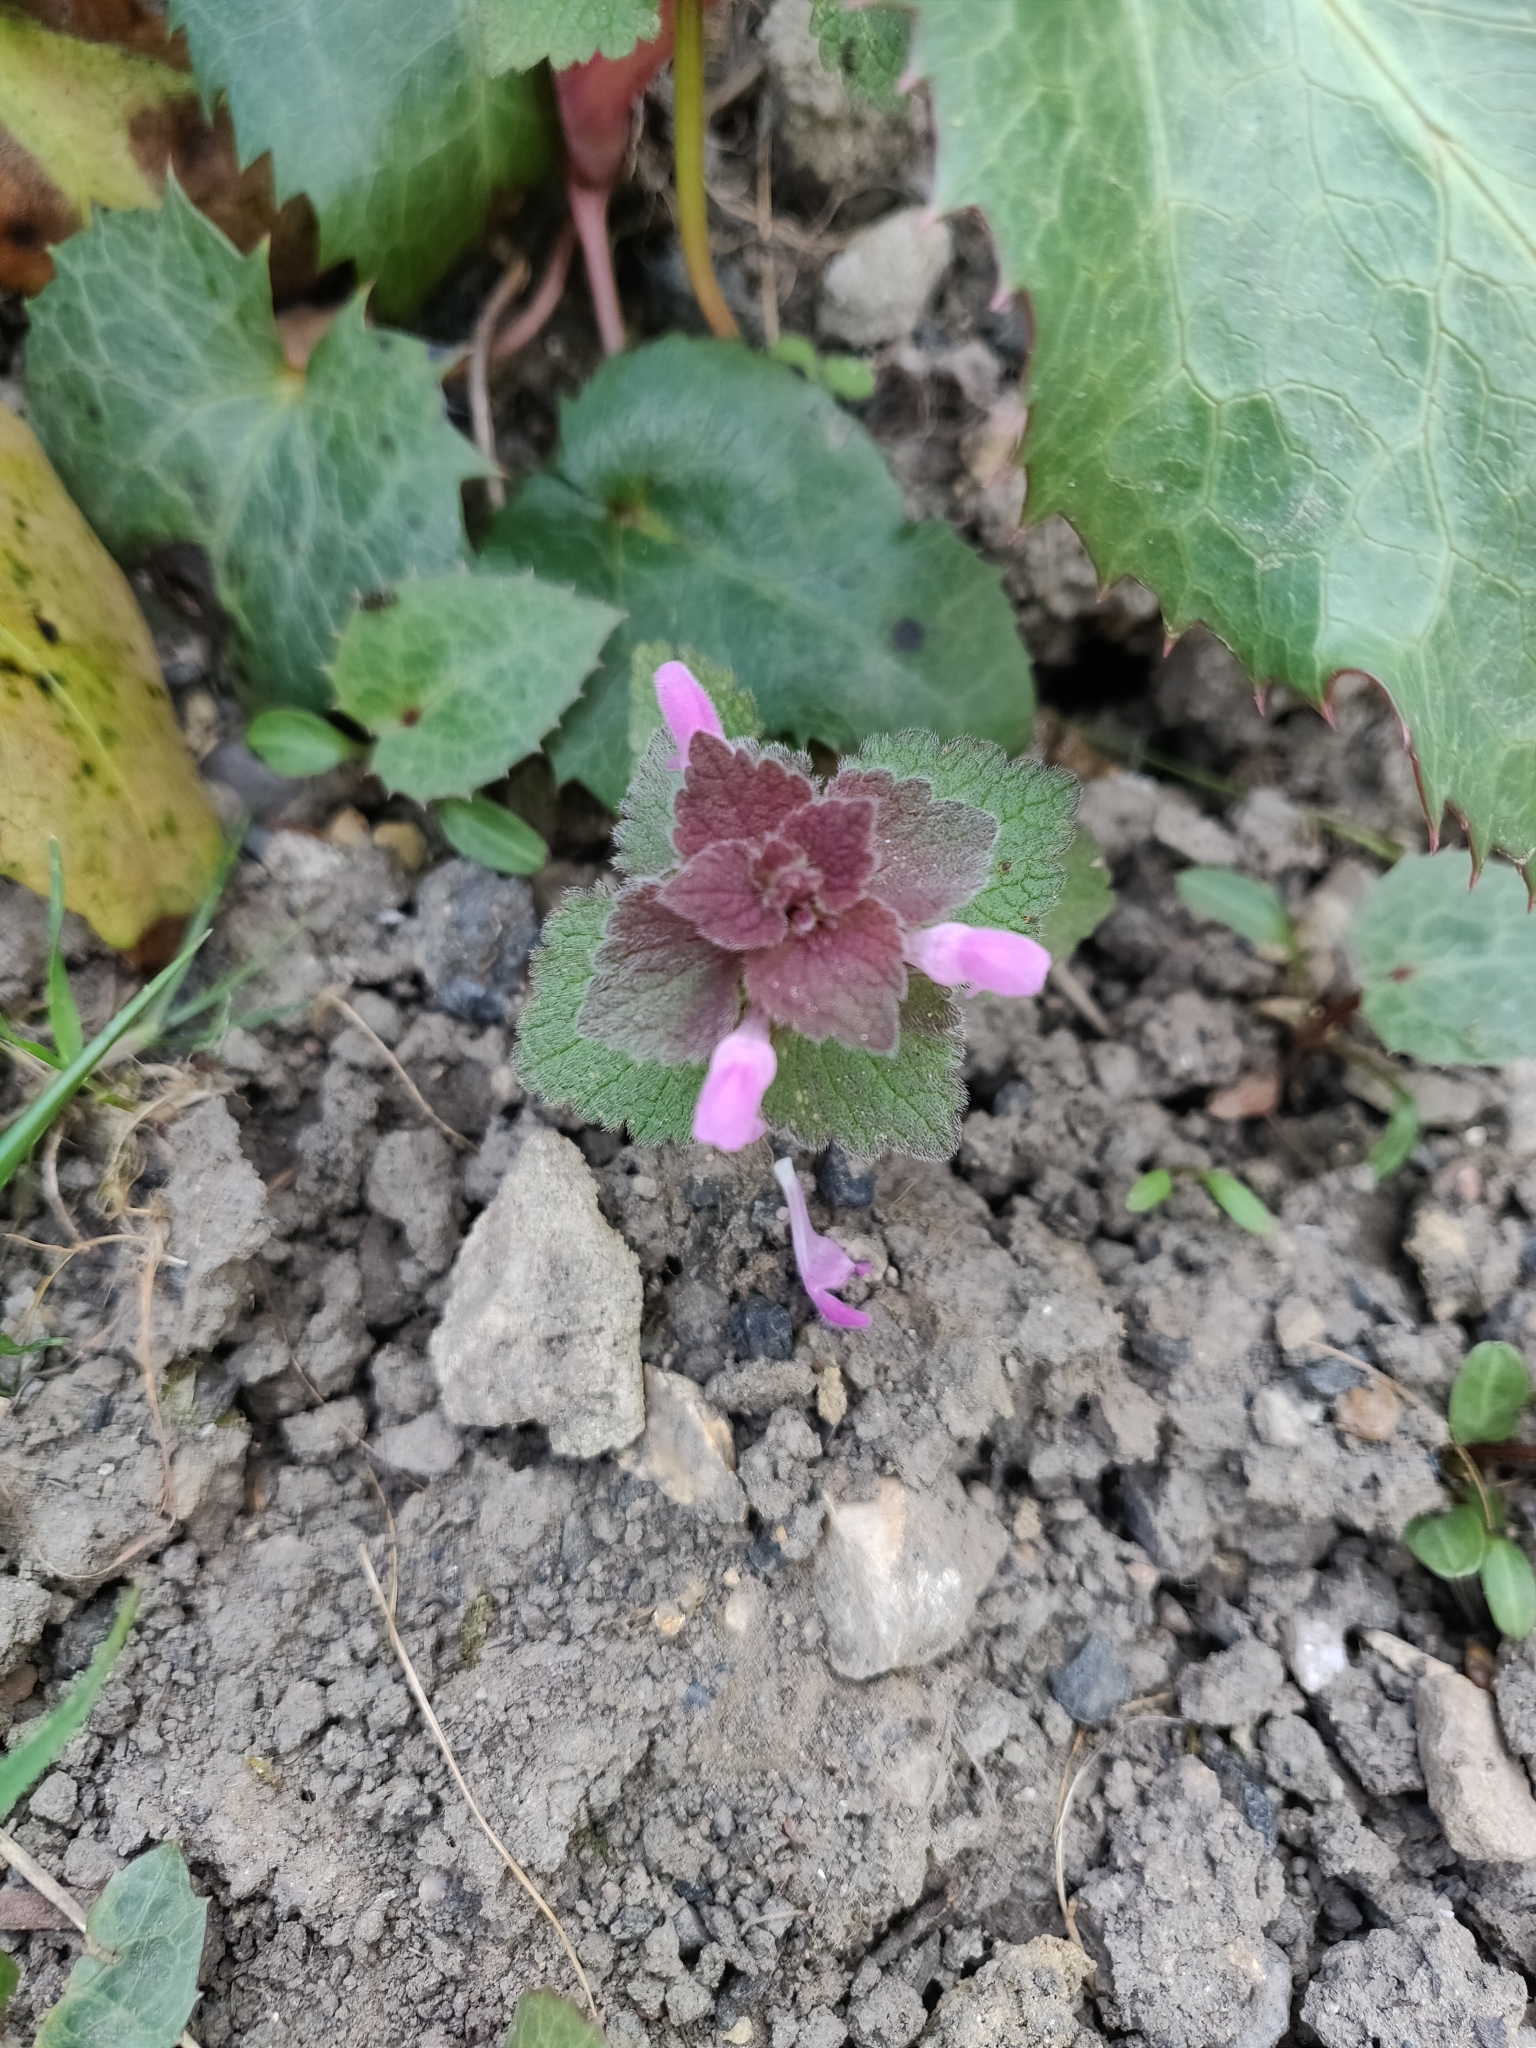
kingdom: Plantae
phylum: Tracheophyta
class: Magnoliopsida
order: Lamiales
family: Lamiaceae
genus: Lamium
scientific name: Lamium purpureum
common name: Red dead-nettle
